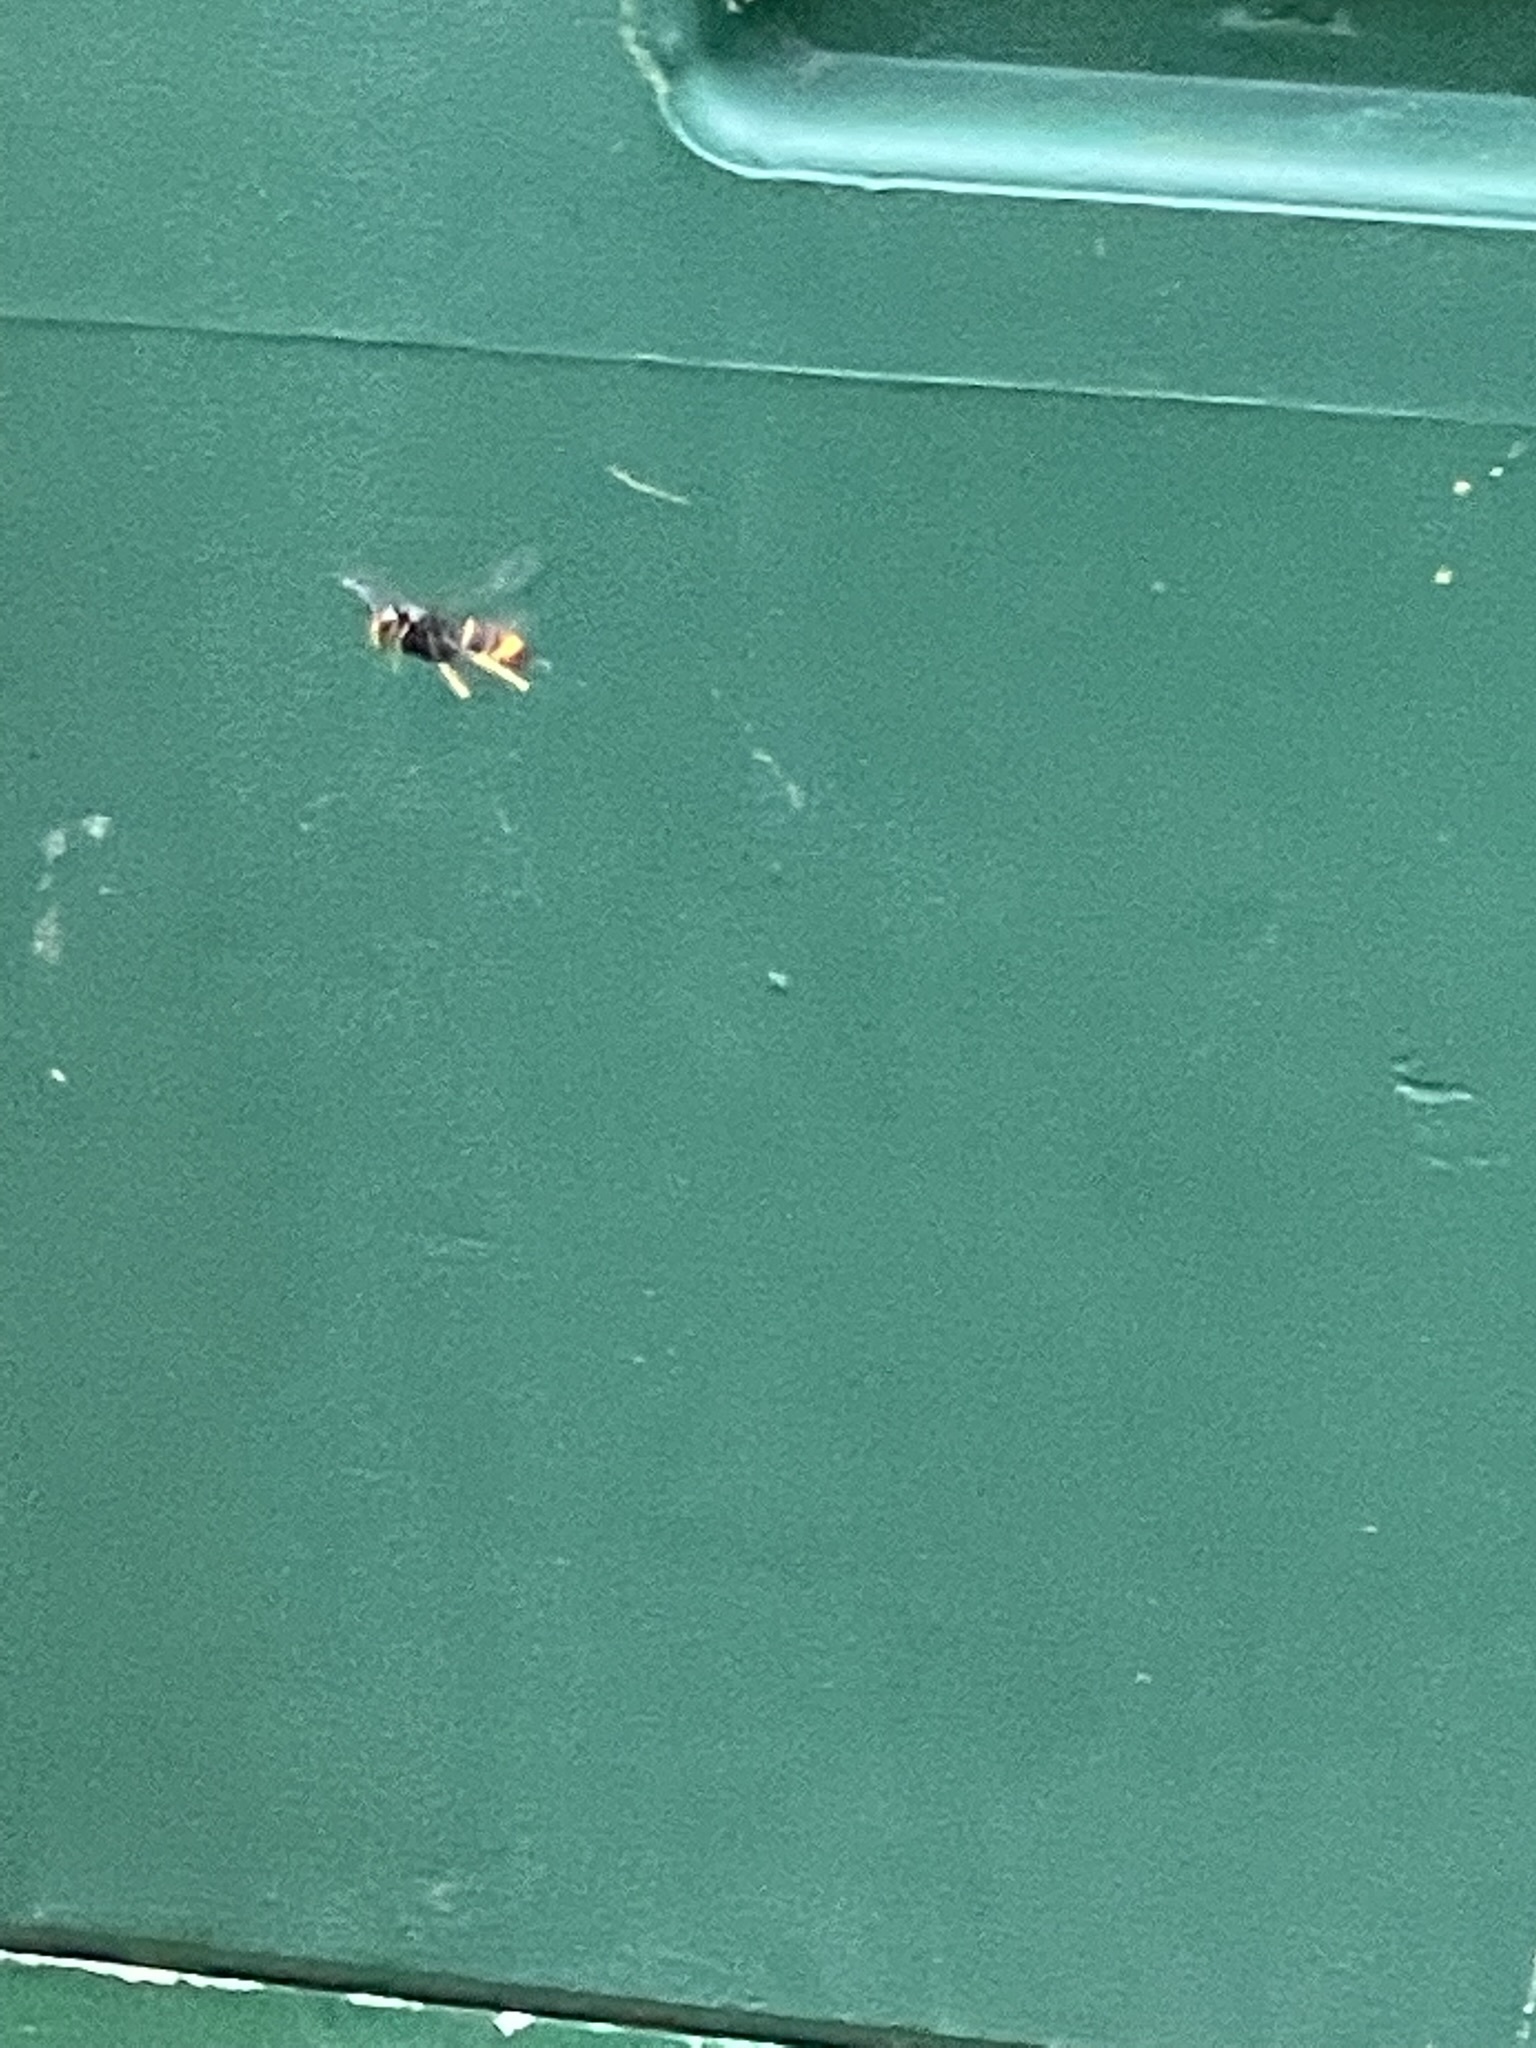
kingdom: Animalia
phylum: Arthropoda
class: Insecta
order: Hymenoptera
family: Vespidae
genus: Vespa
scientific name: Vespa velutina
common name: Asian hornet
